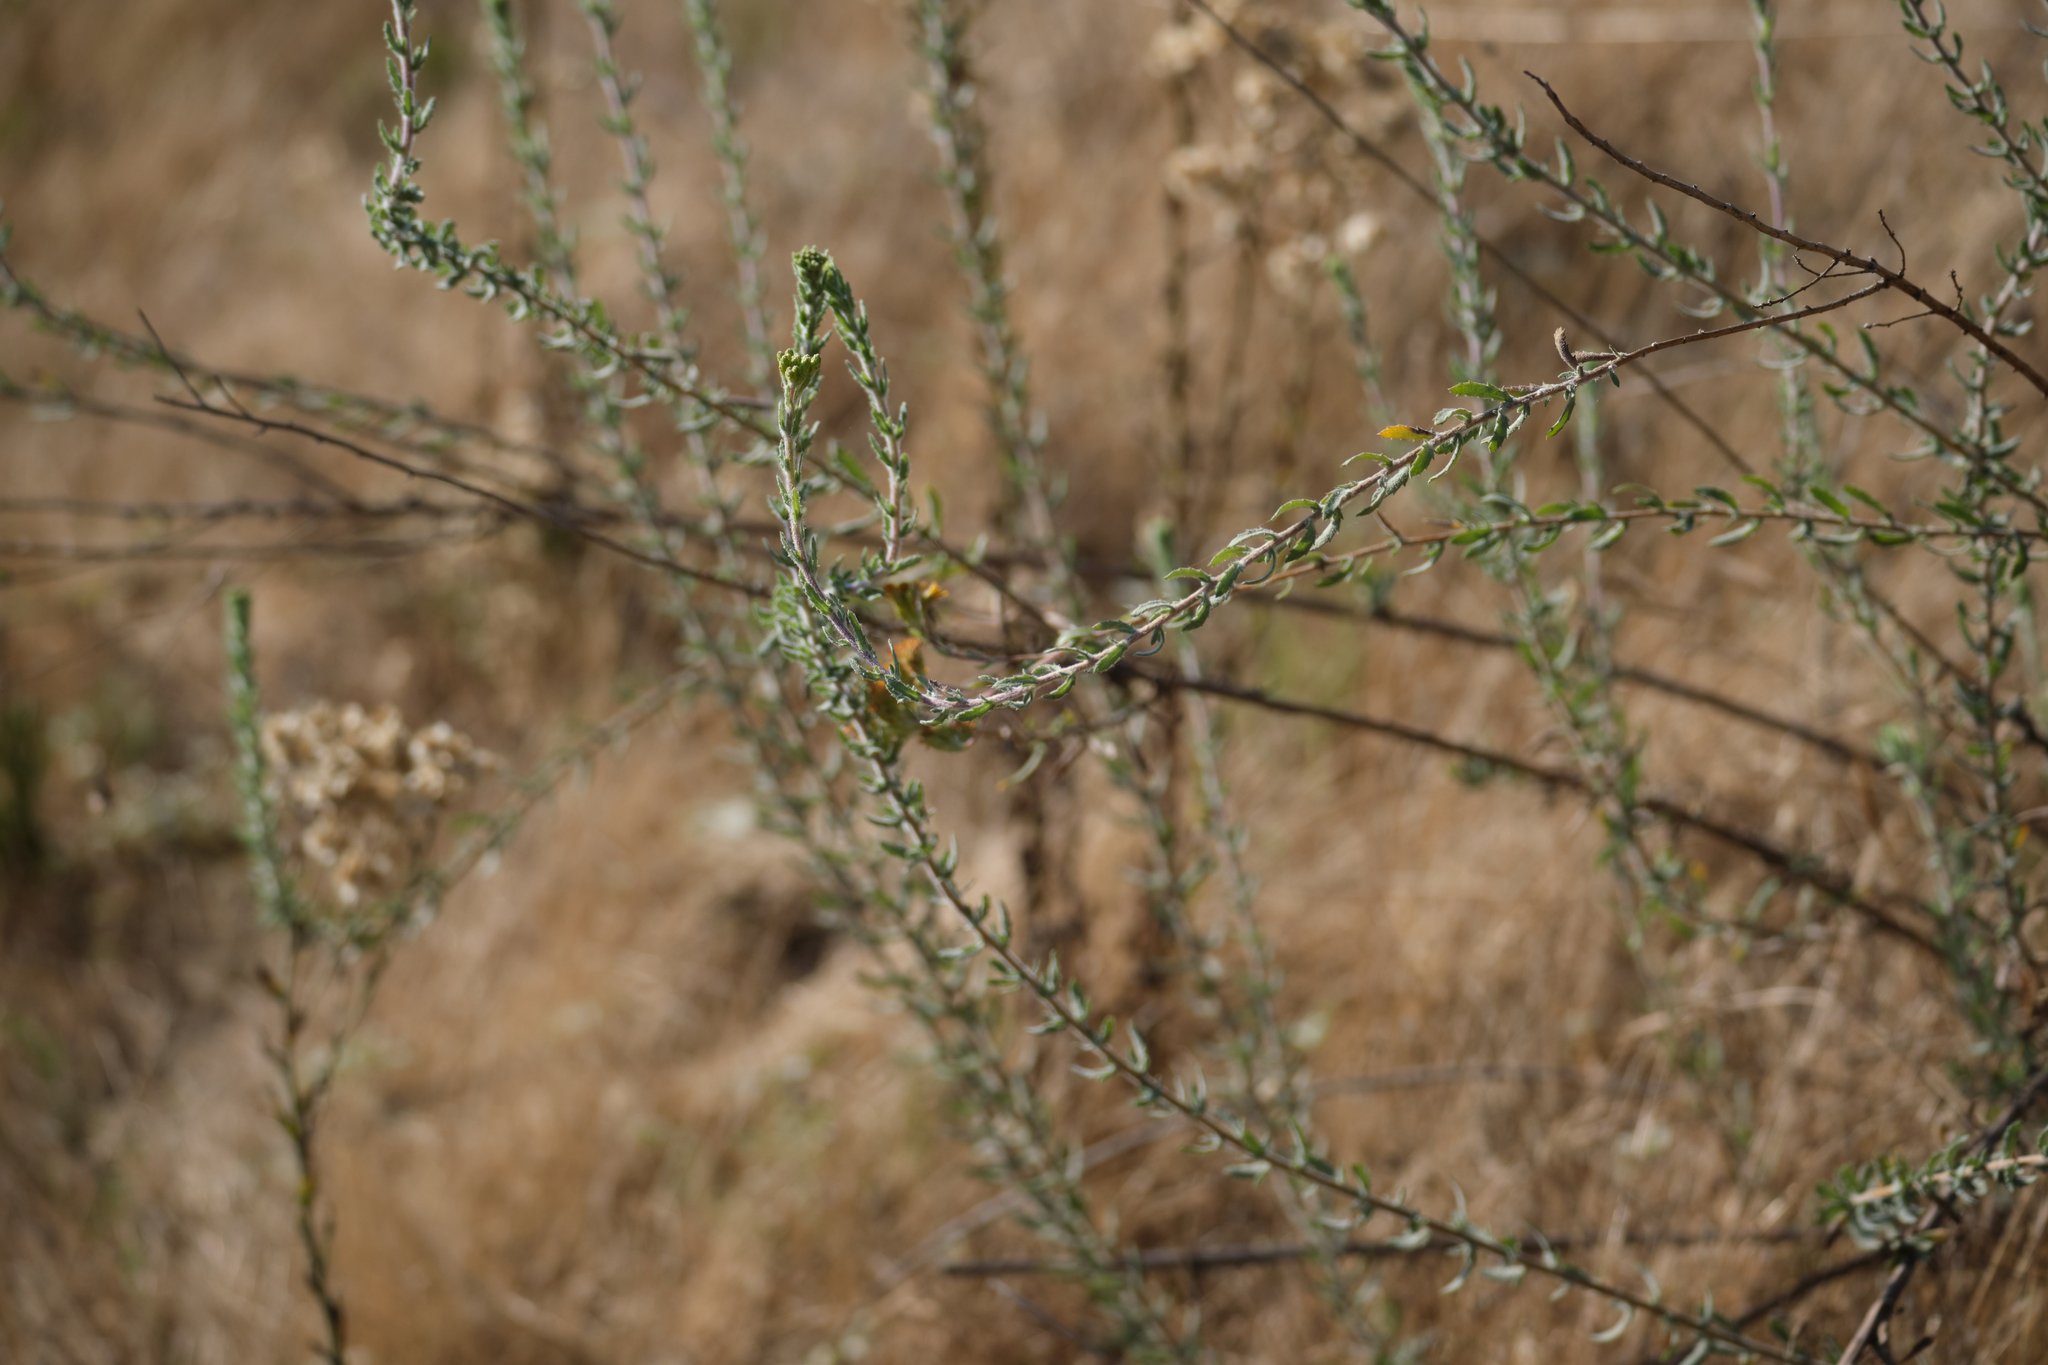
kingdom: Plantae
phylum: Tracheophyta
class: Magnoliopsida
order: Asterales
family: Asteraceae
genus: Isocoma
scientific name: Isocoma menziesii
